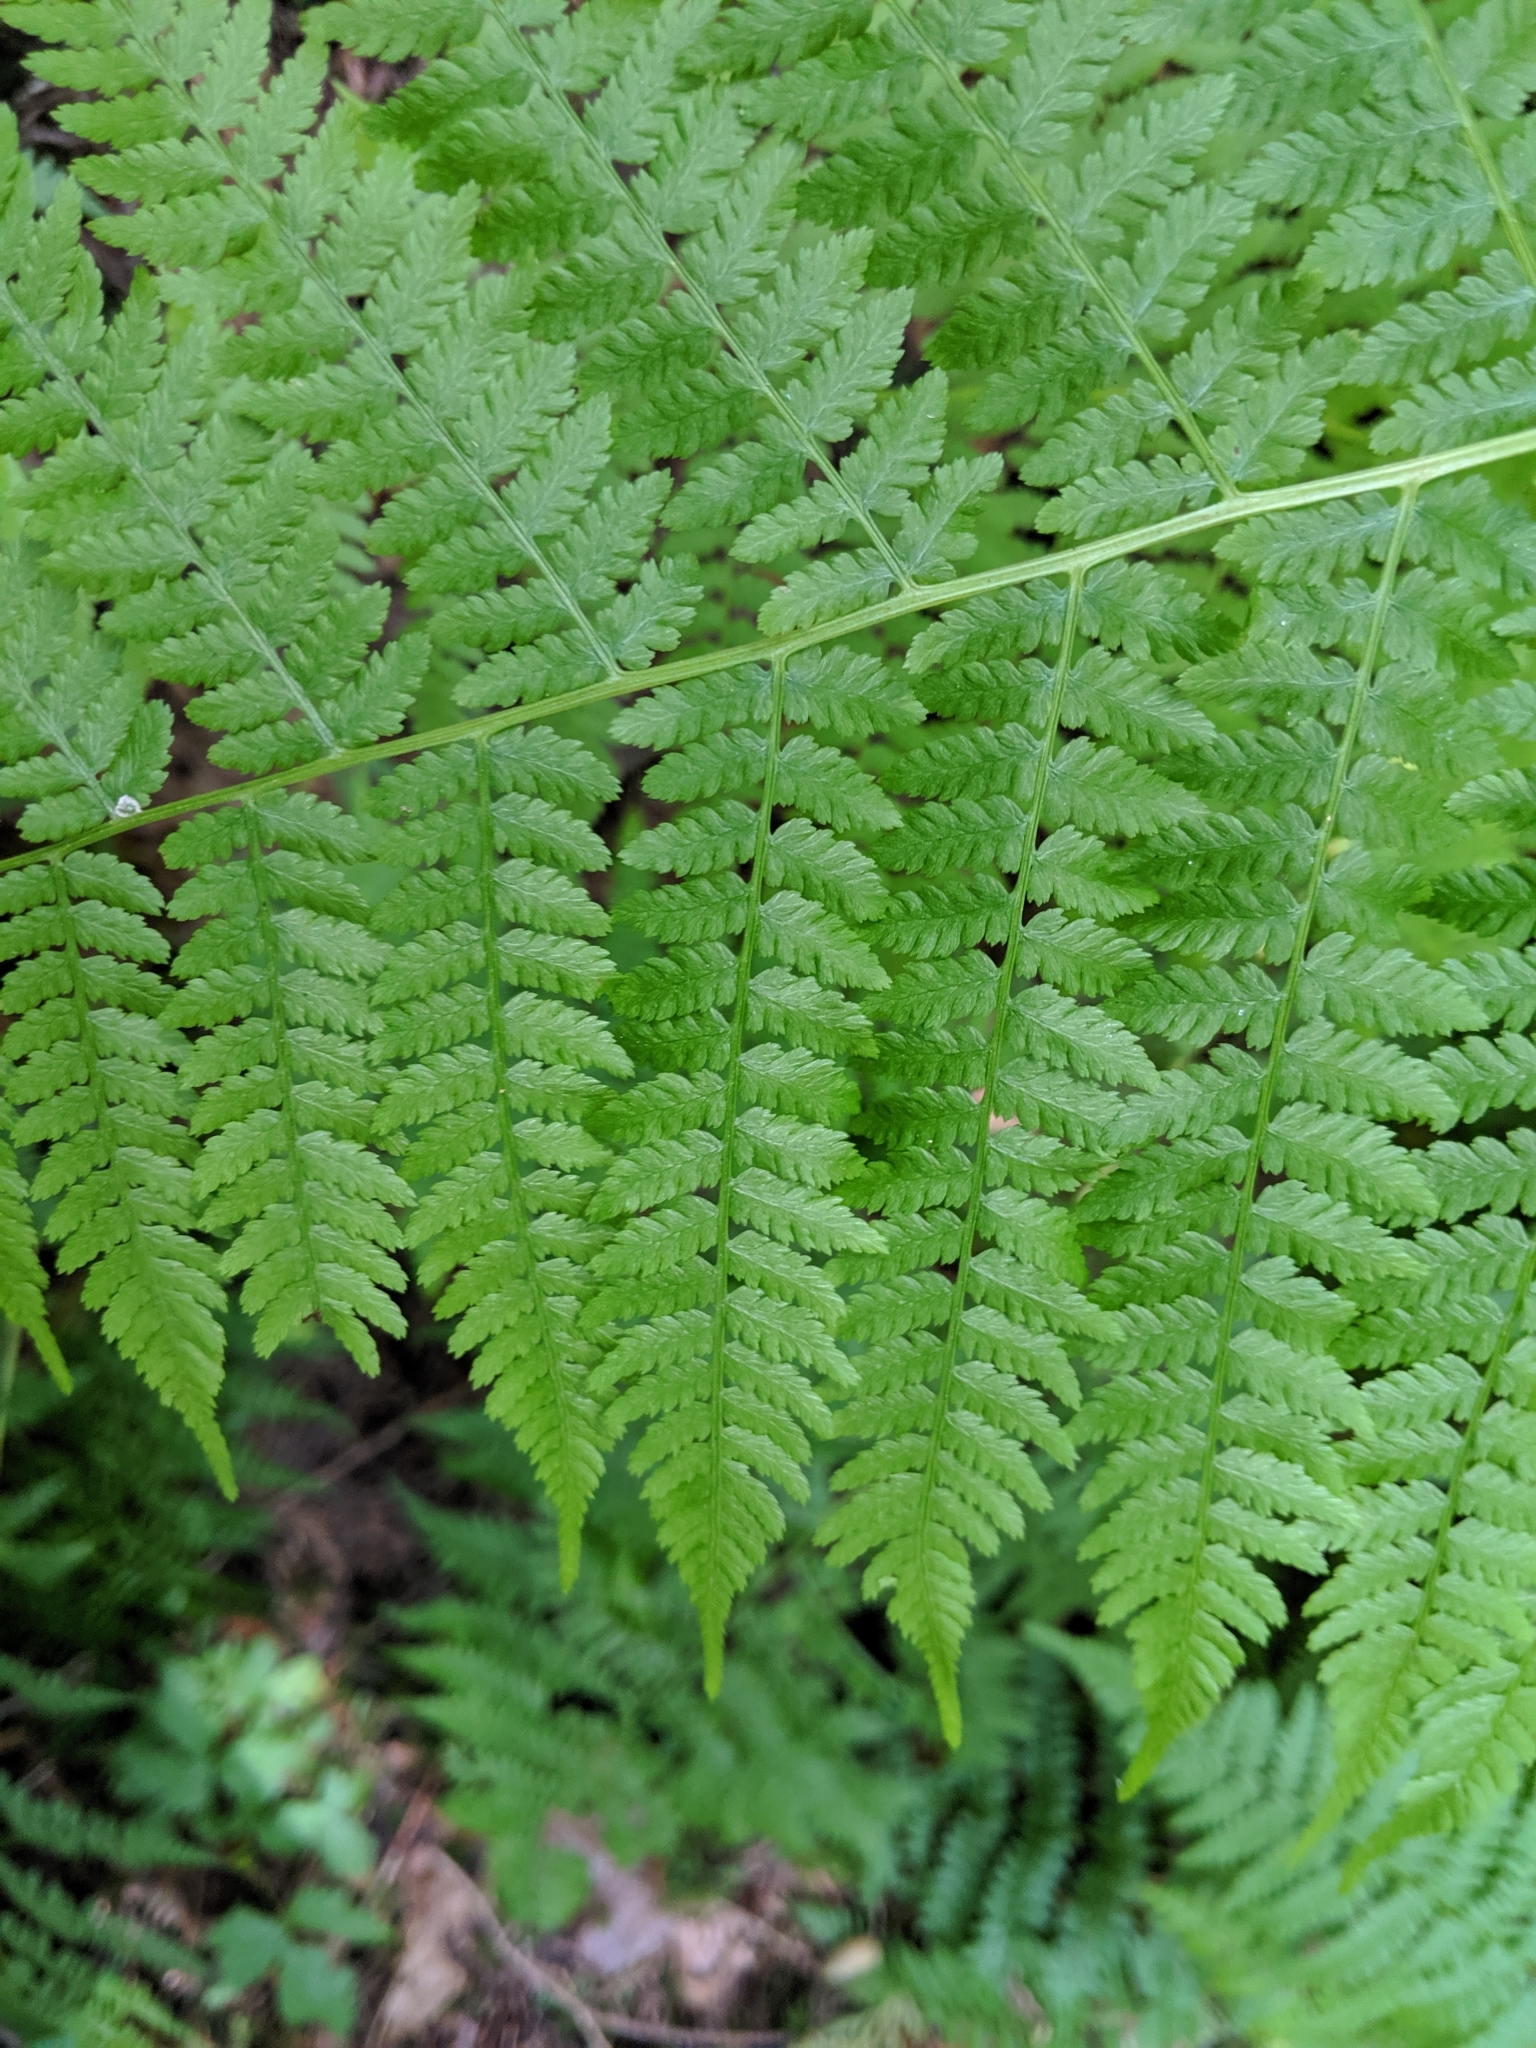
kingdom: Plantae
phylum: Tracheophyta
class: Polypodiopsida
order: Polypodiales
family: Athyriaceae
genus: Athyrium
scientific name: Athyrium filix-femina
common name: Lady fern
